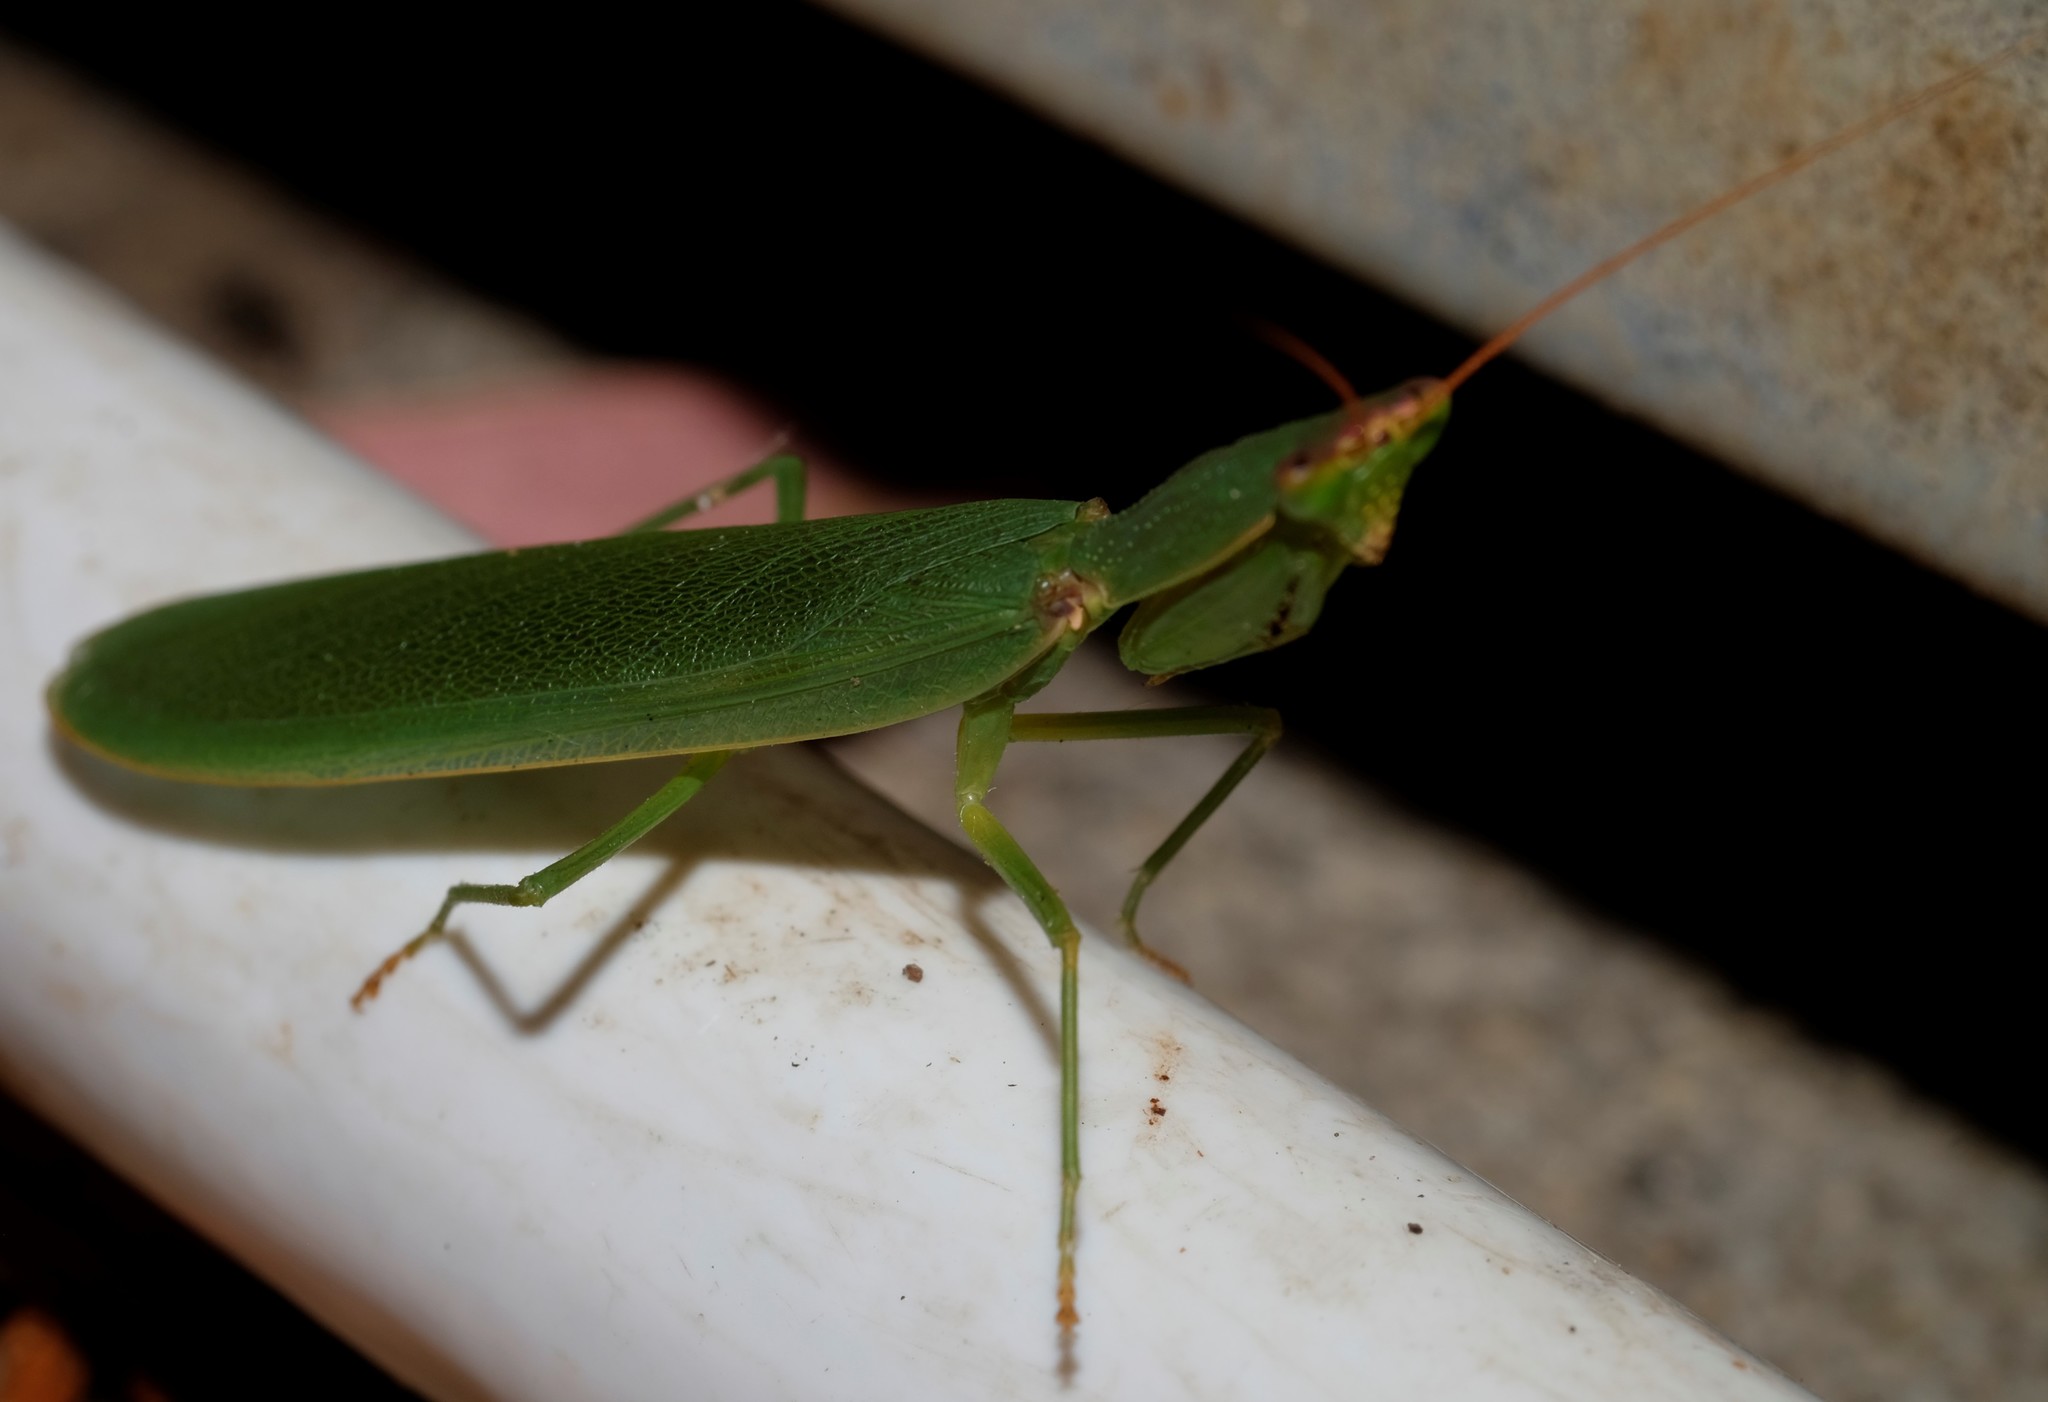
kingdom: Animalia
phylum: Arthropoda
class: Insecta
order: Mantodea
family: Mantidae
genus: Orthodera
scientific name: Orthodera ministralis
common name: Mantis
